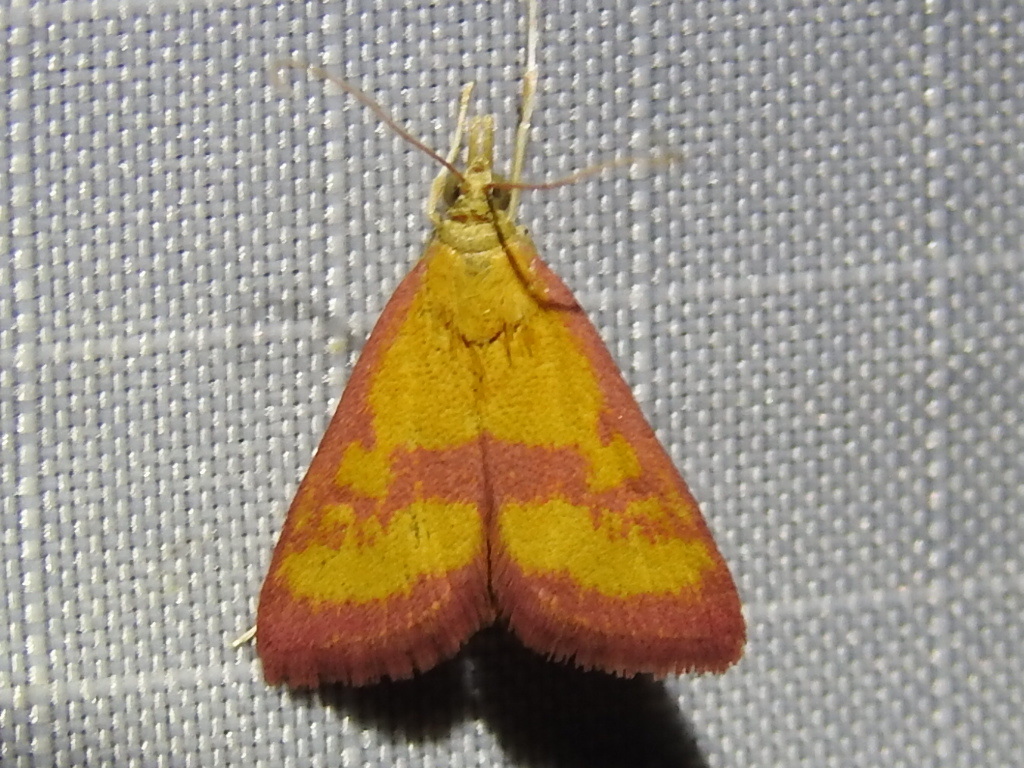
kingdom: Animalia
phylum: Arthropoda
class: Insecta
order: Lepidoptera
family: Crambidae
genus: Pyrausta
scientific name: Pyrausta laticlavia
